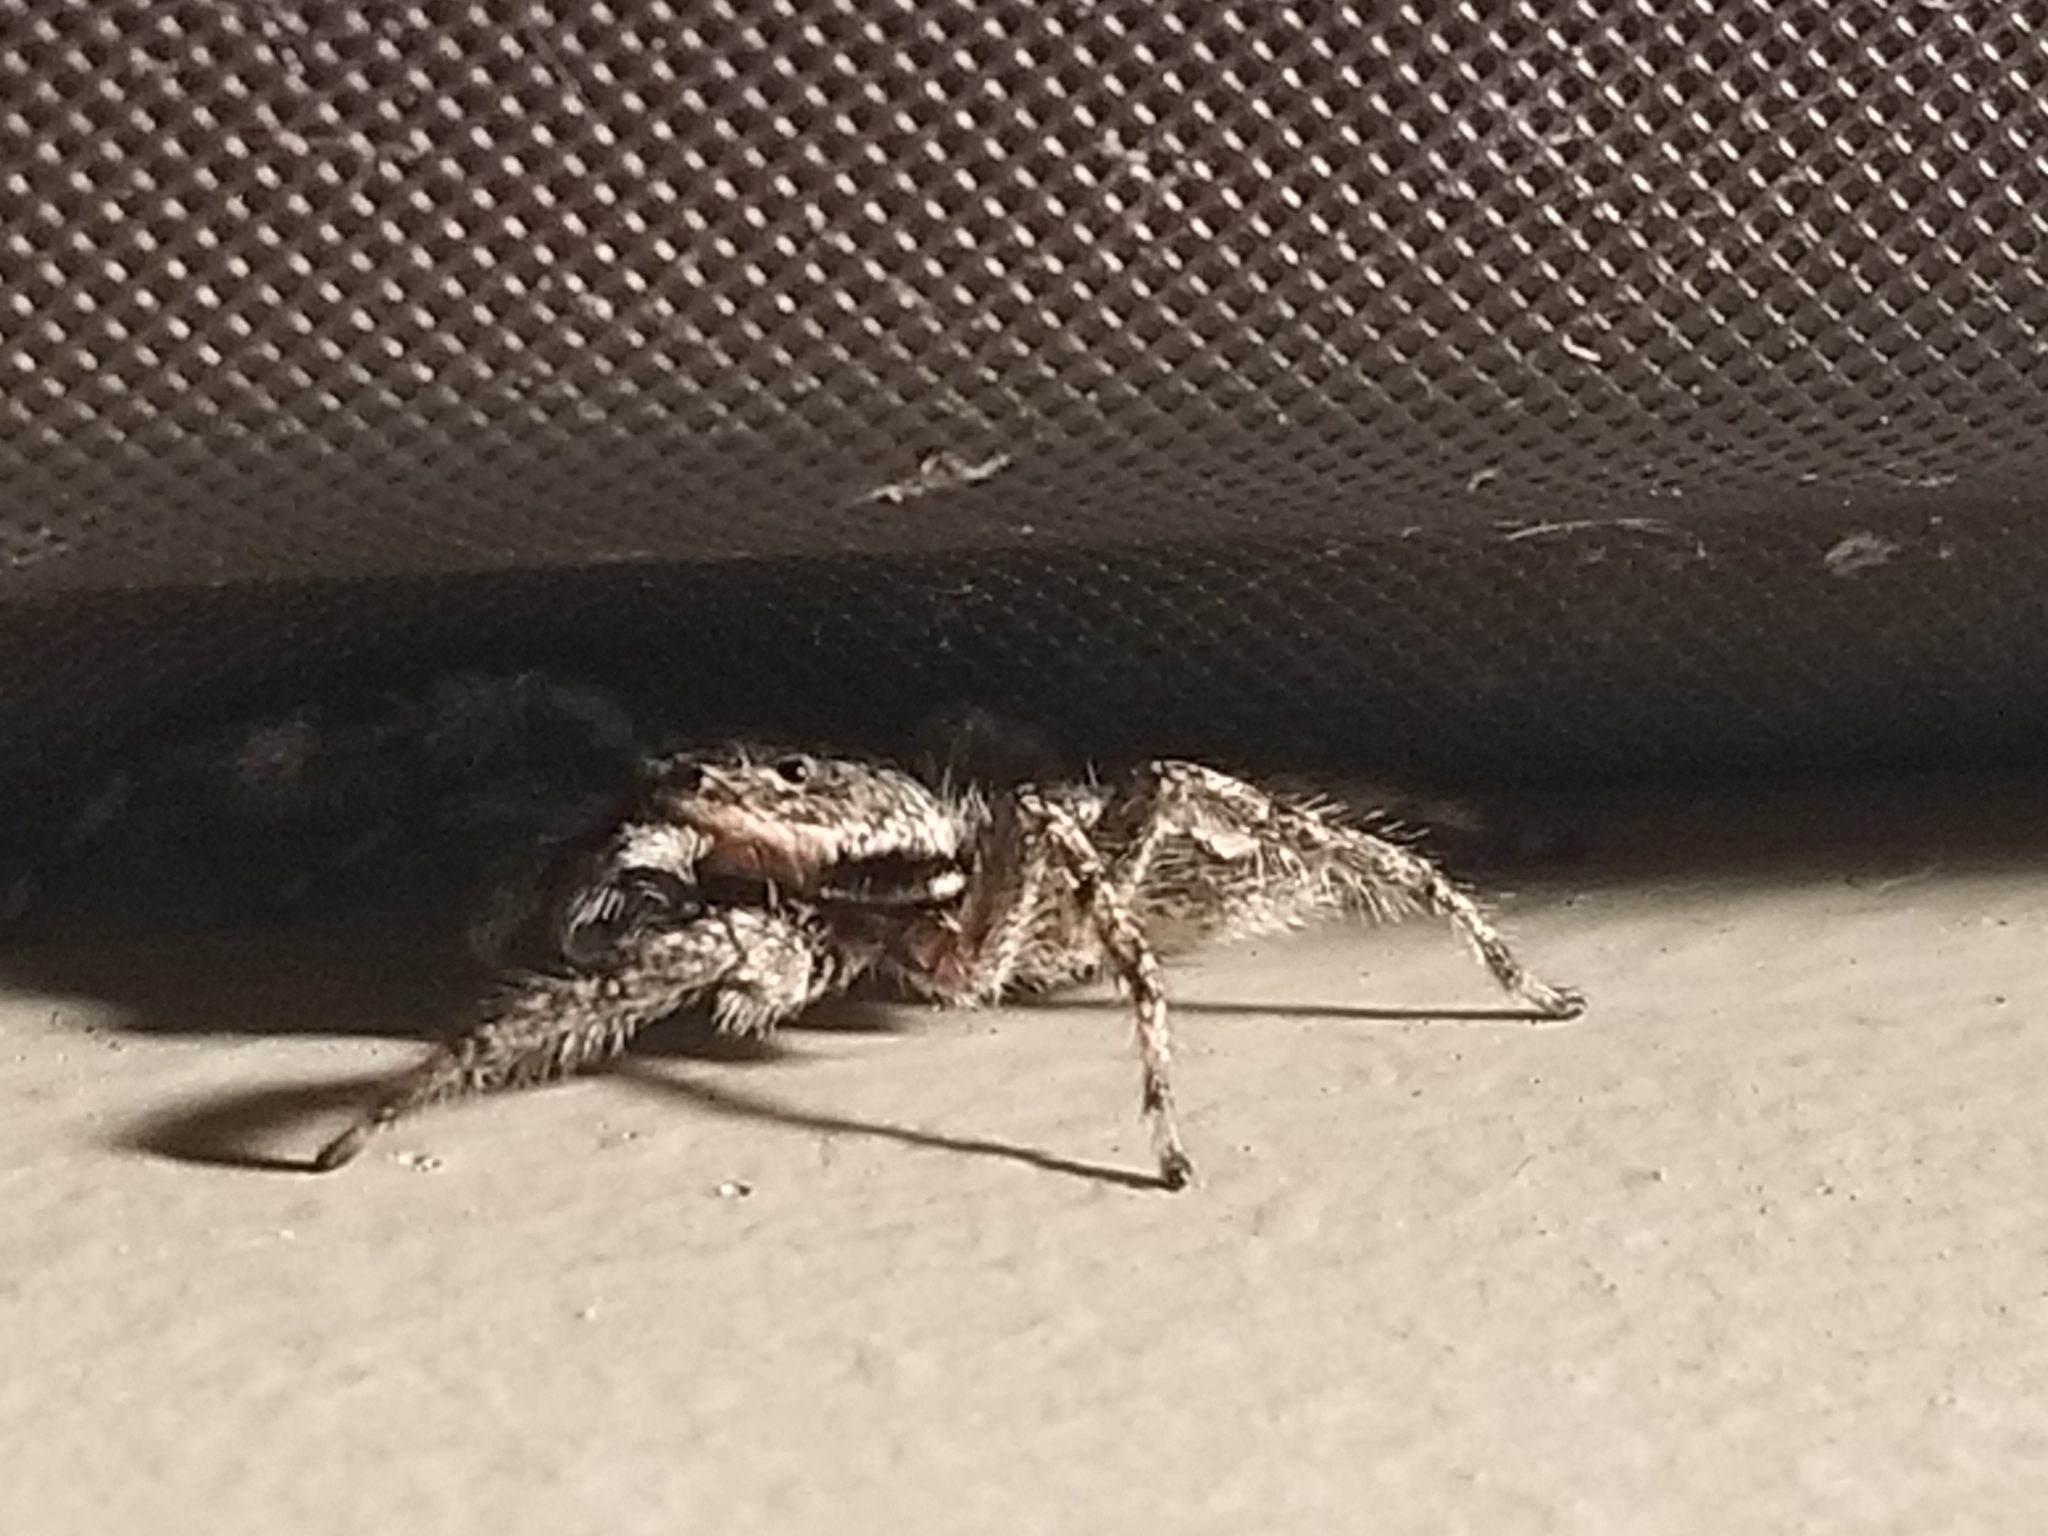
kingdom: Animalia
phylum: Arthropoda
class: Arachnida
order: Araneae
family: Salticidae
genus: Platycryptus
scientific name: Platycryptus undatus
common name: Tan jumping spider
